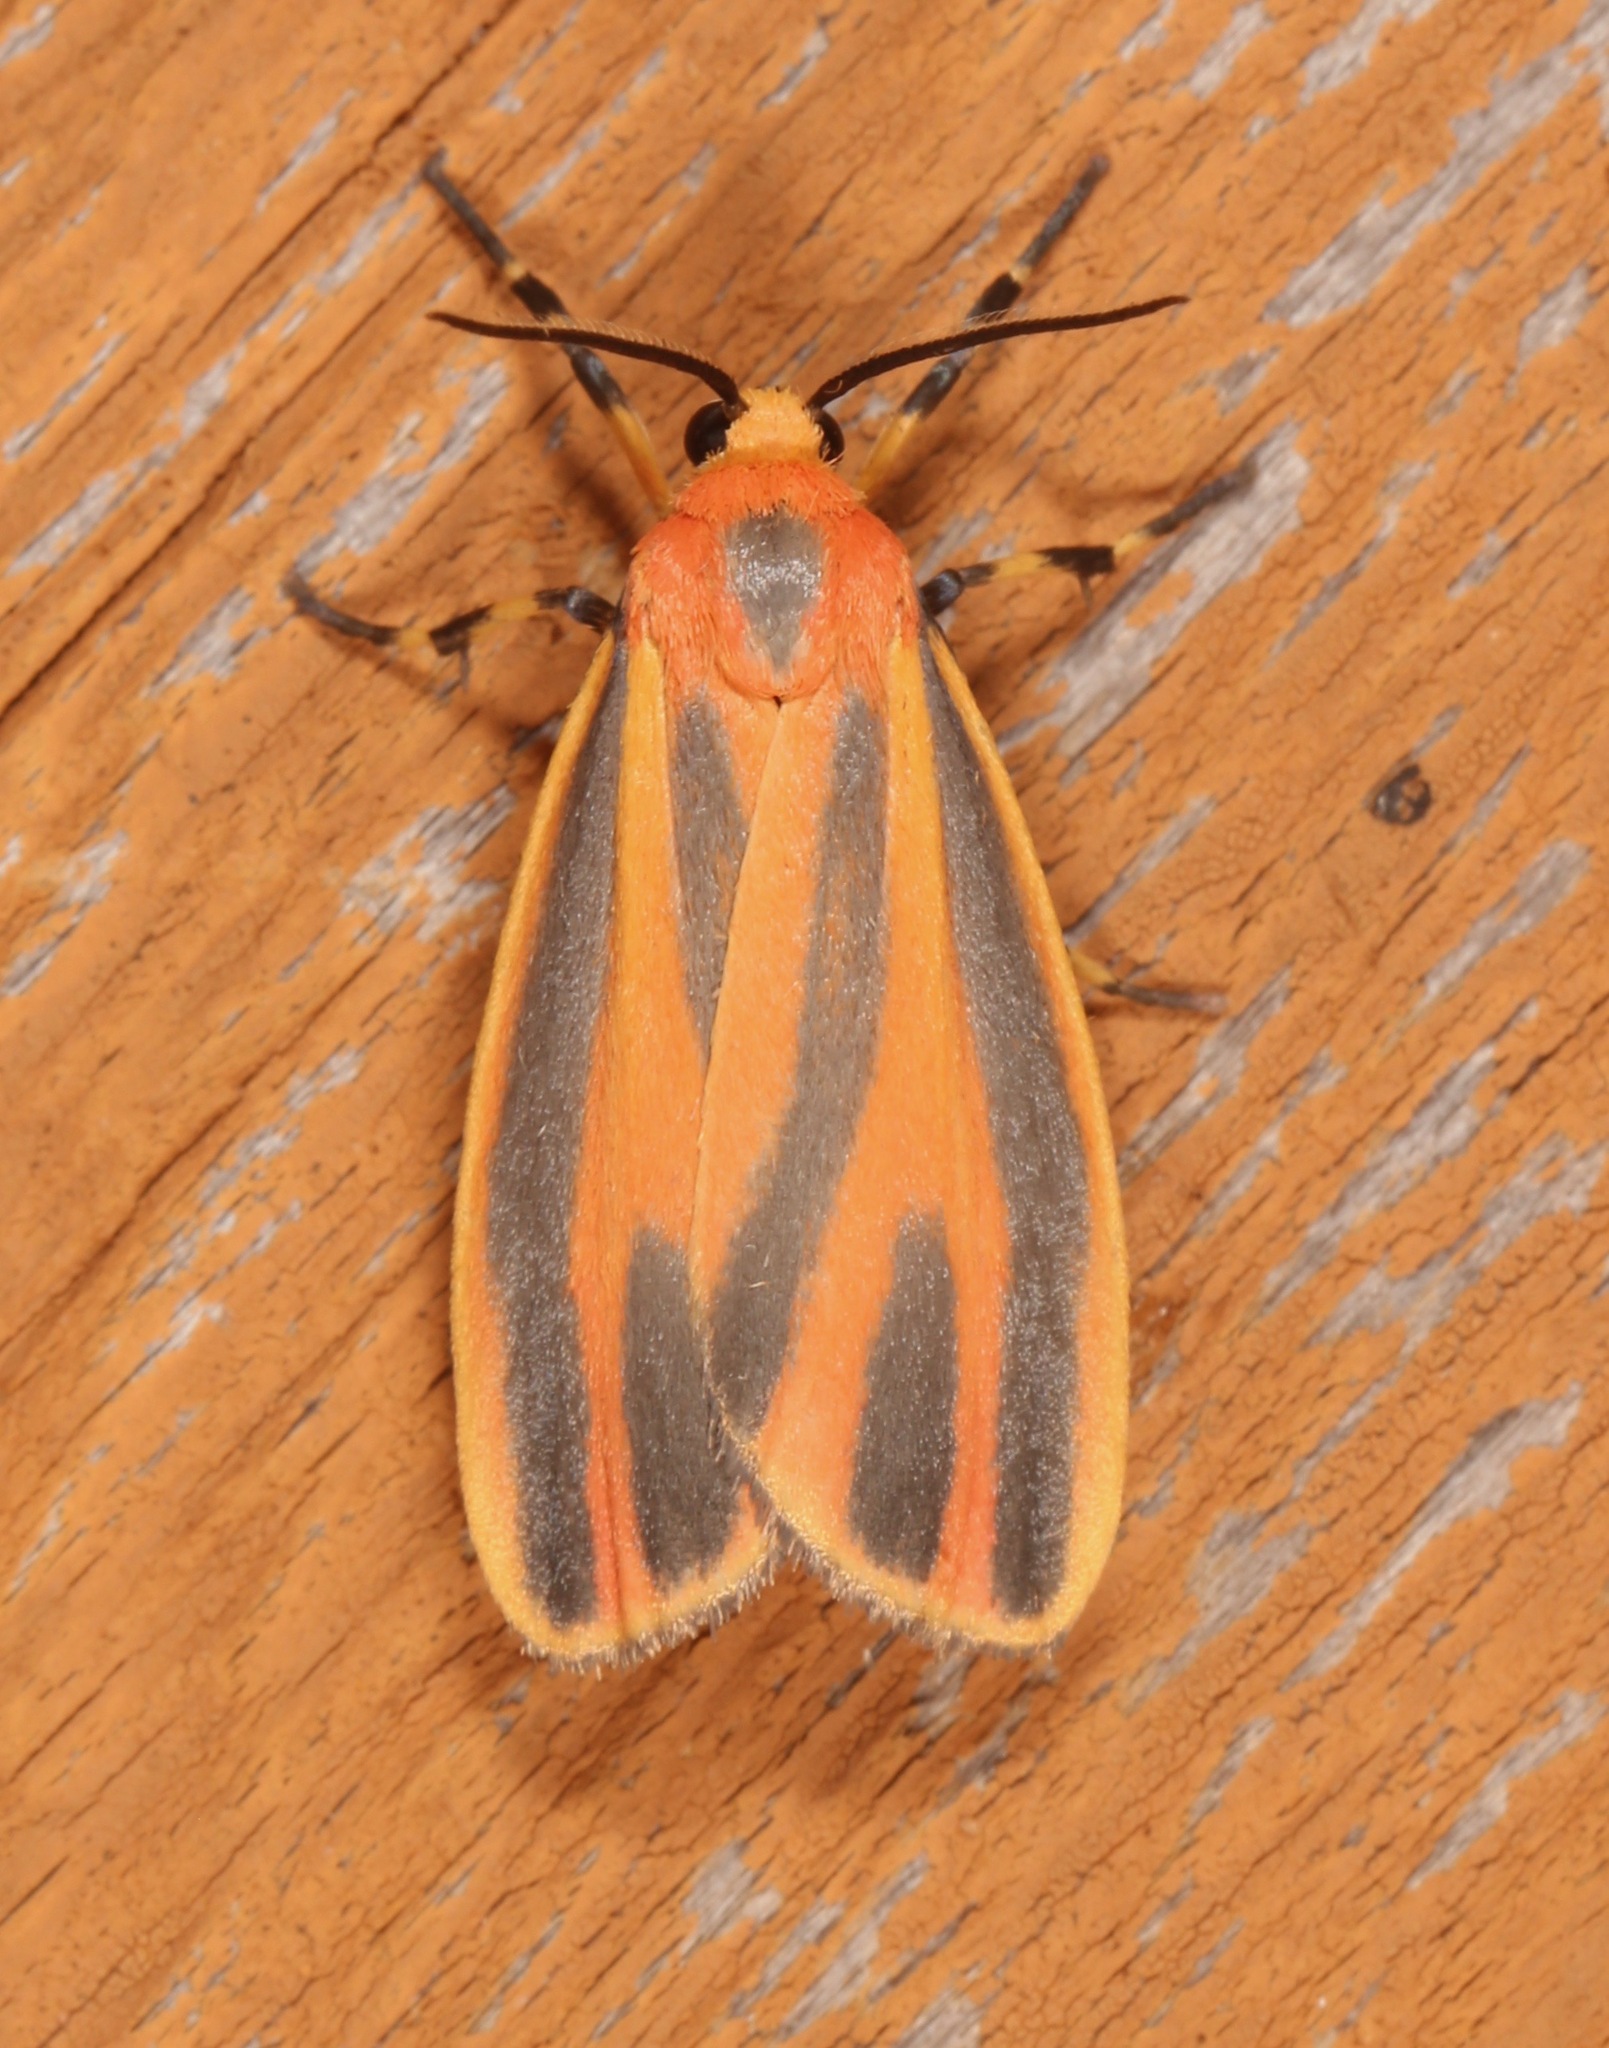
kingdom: Animalia
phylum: Arthropoda
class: Insecta
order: Lepidoptera
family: Erebidae
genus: Hypoprepia
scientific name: Hypoprepia fucosa
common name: Painted lichen moth
